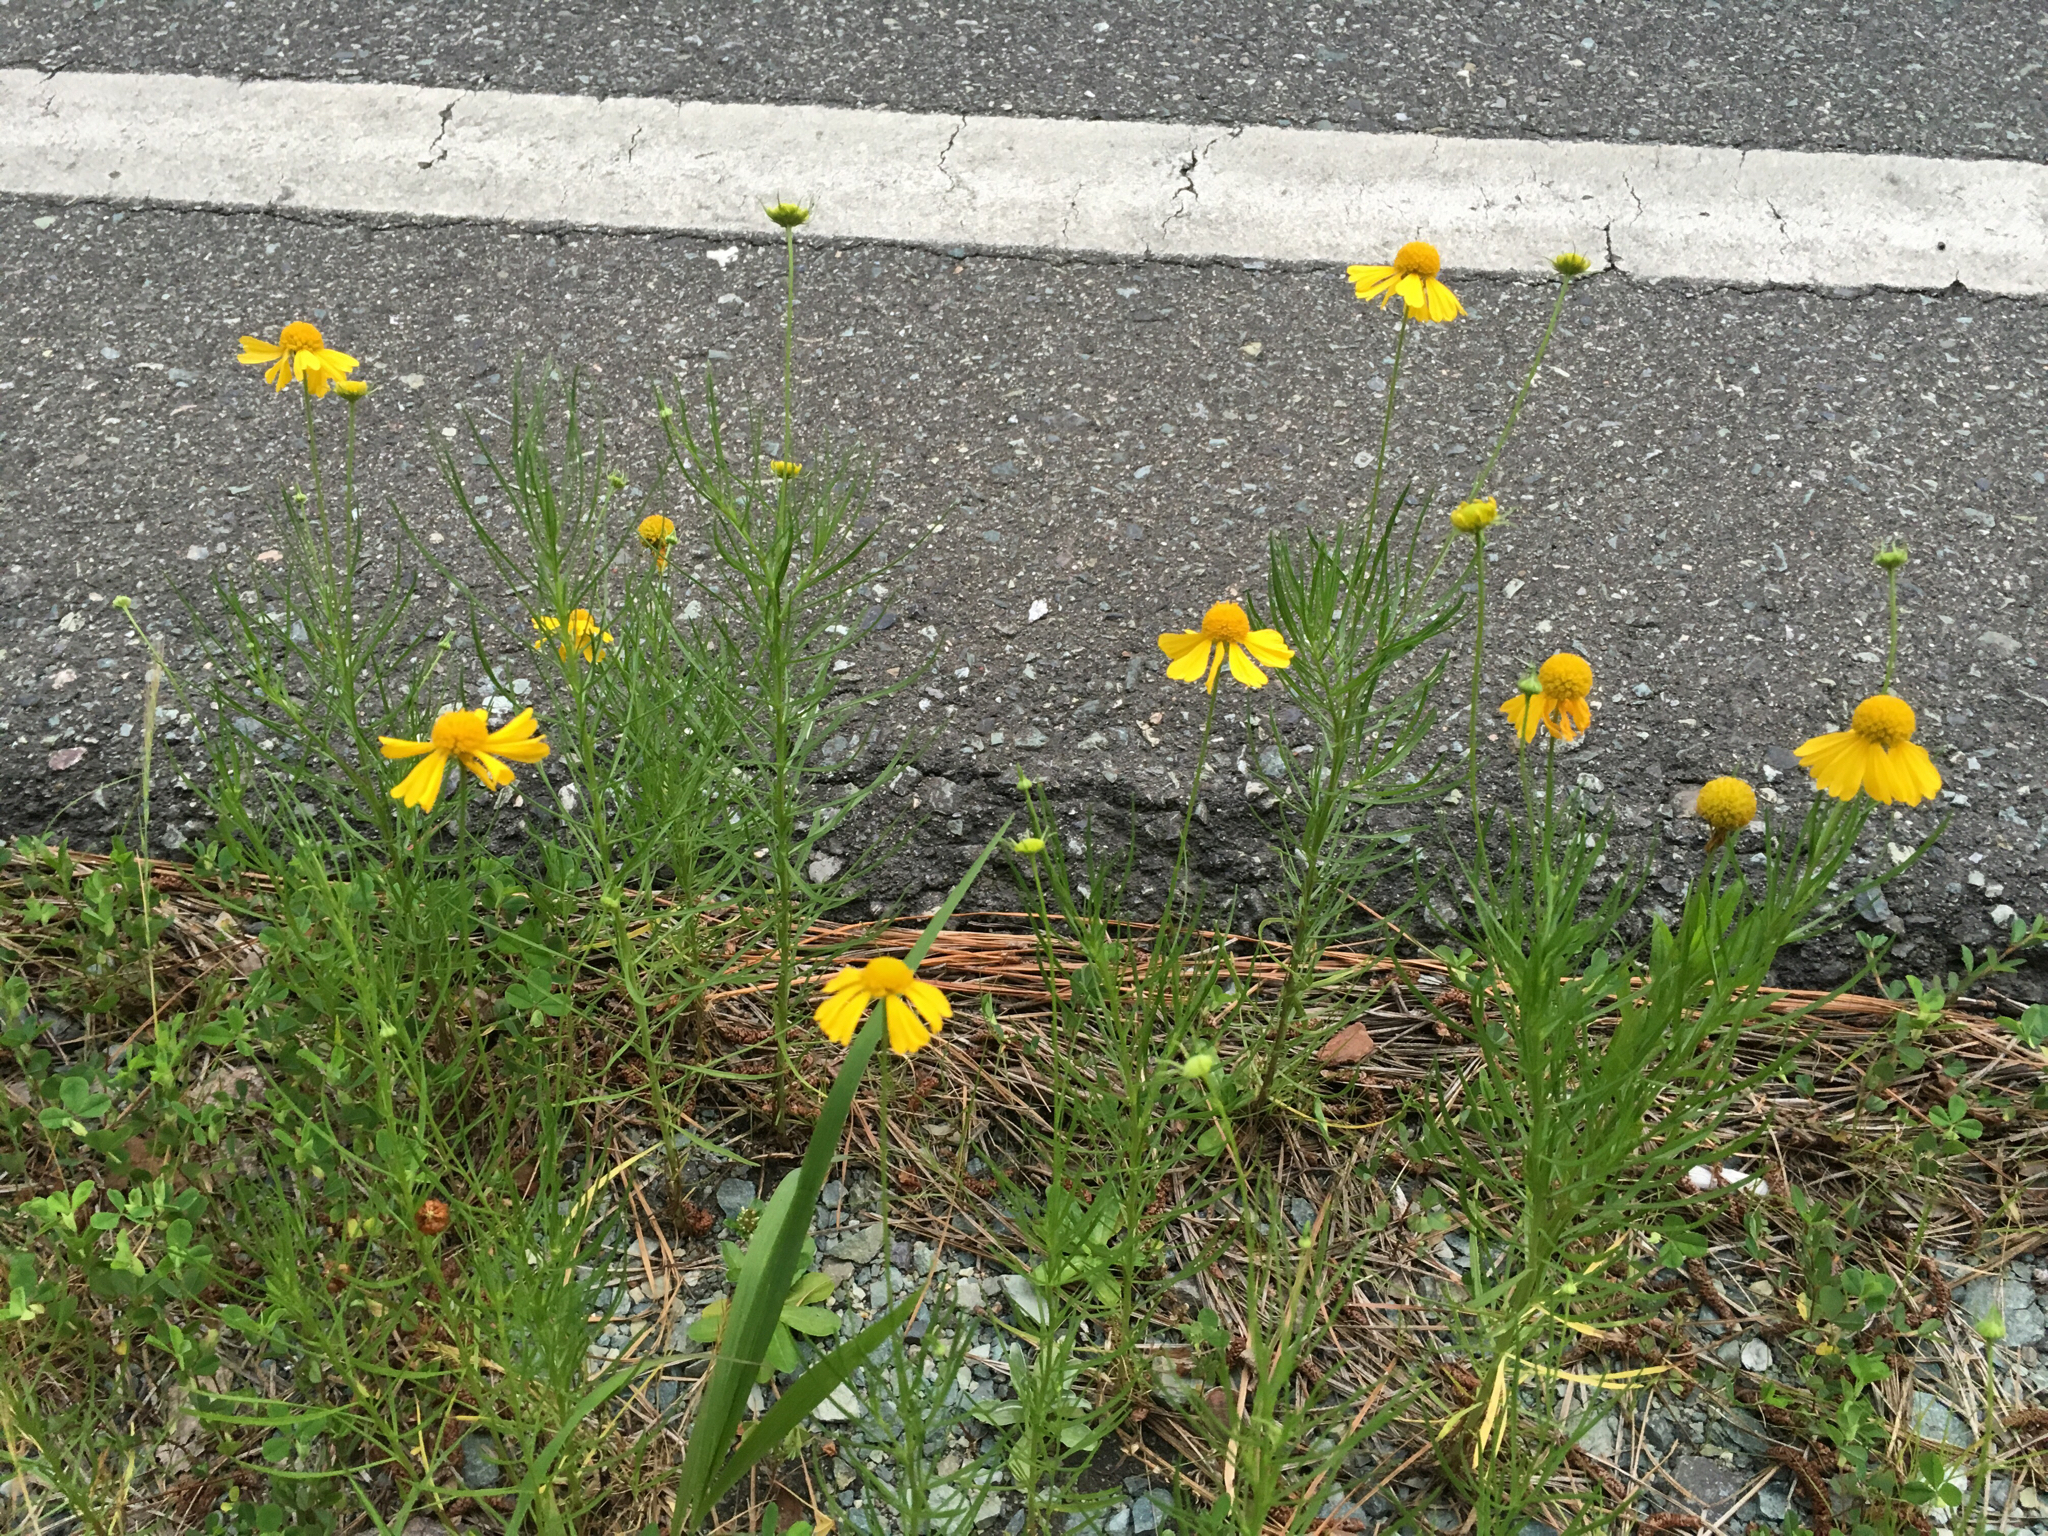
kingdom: Plantae
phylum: Tracheophyta
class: Magnoliopsida
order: Asterales
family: Asteraceae
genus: Helenium
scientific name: Helenium amarum
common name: Bitter sneezeweed
